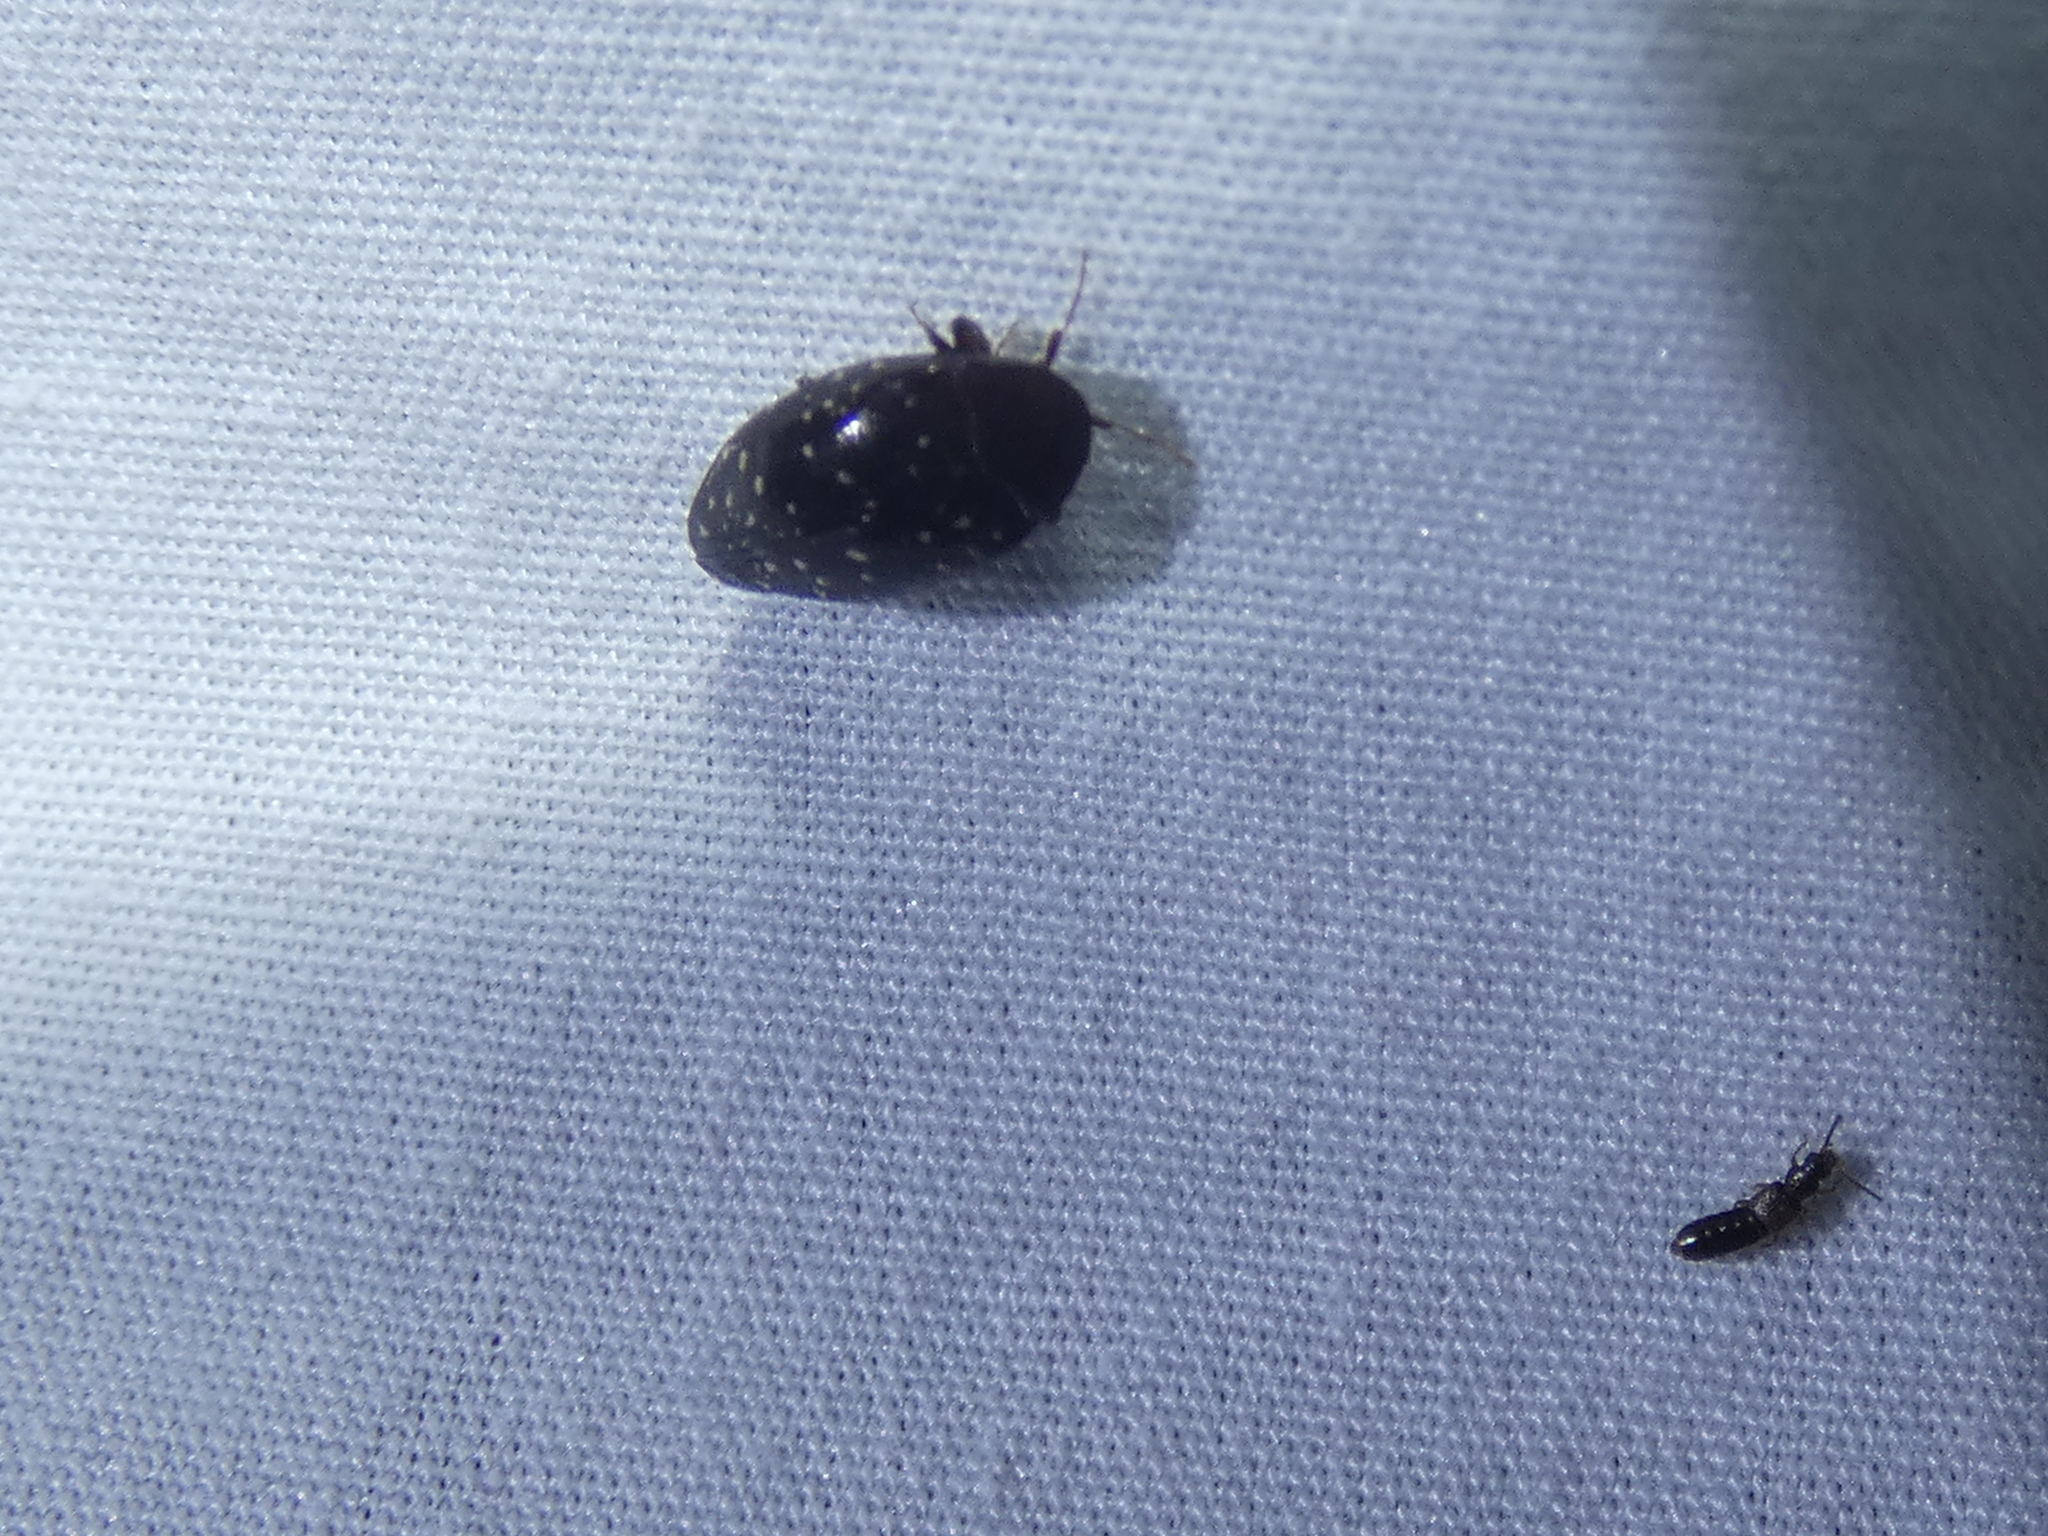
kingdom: Animalia
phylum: Arthropoda
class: Insecta
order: Coleoptera
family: Chelonariidae
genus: Chelonarium
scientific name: Chelonarium lecontei
